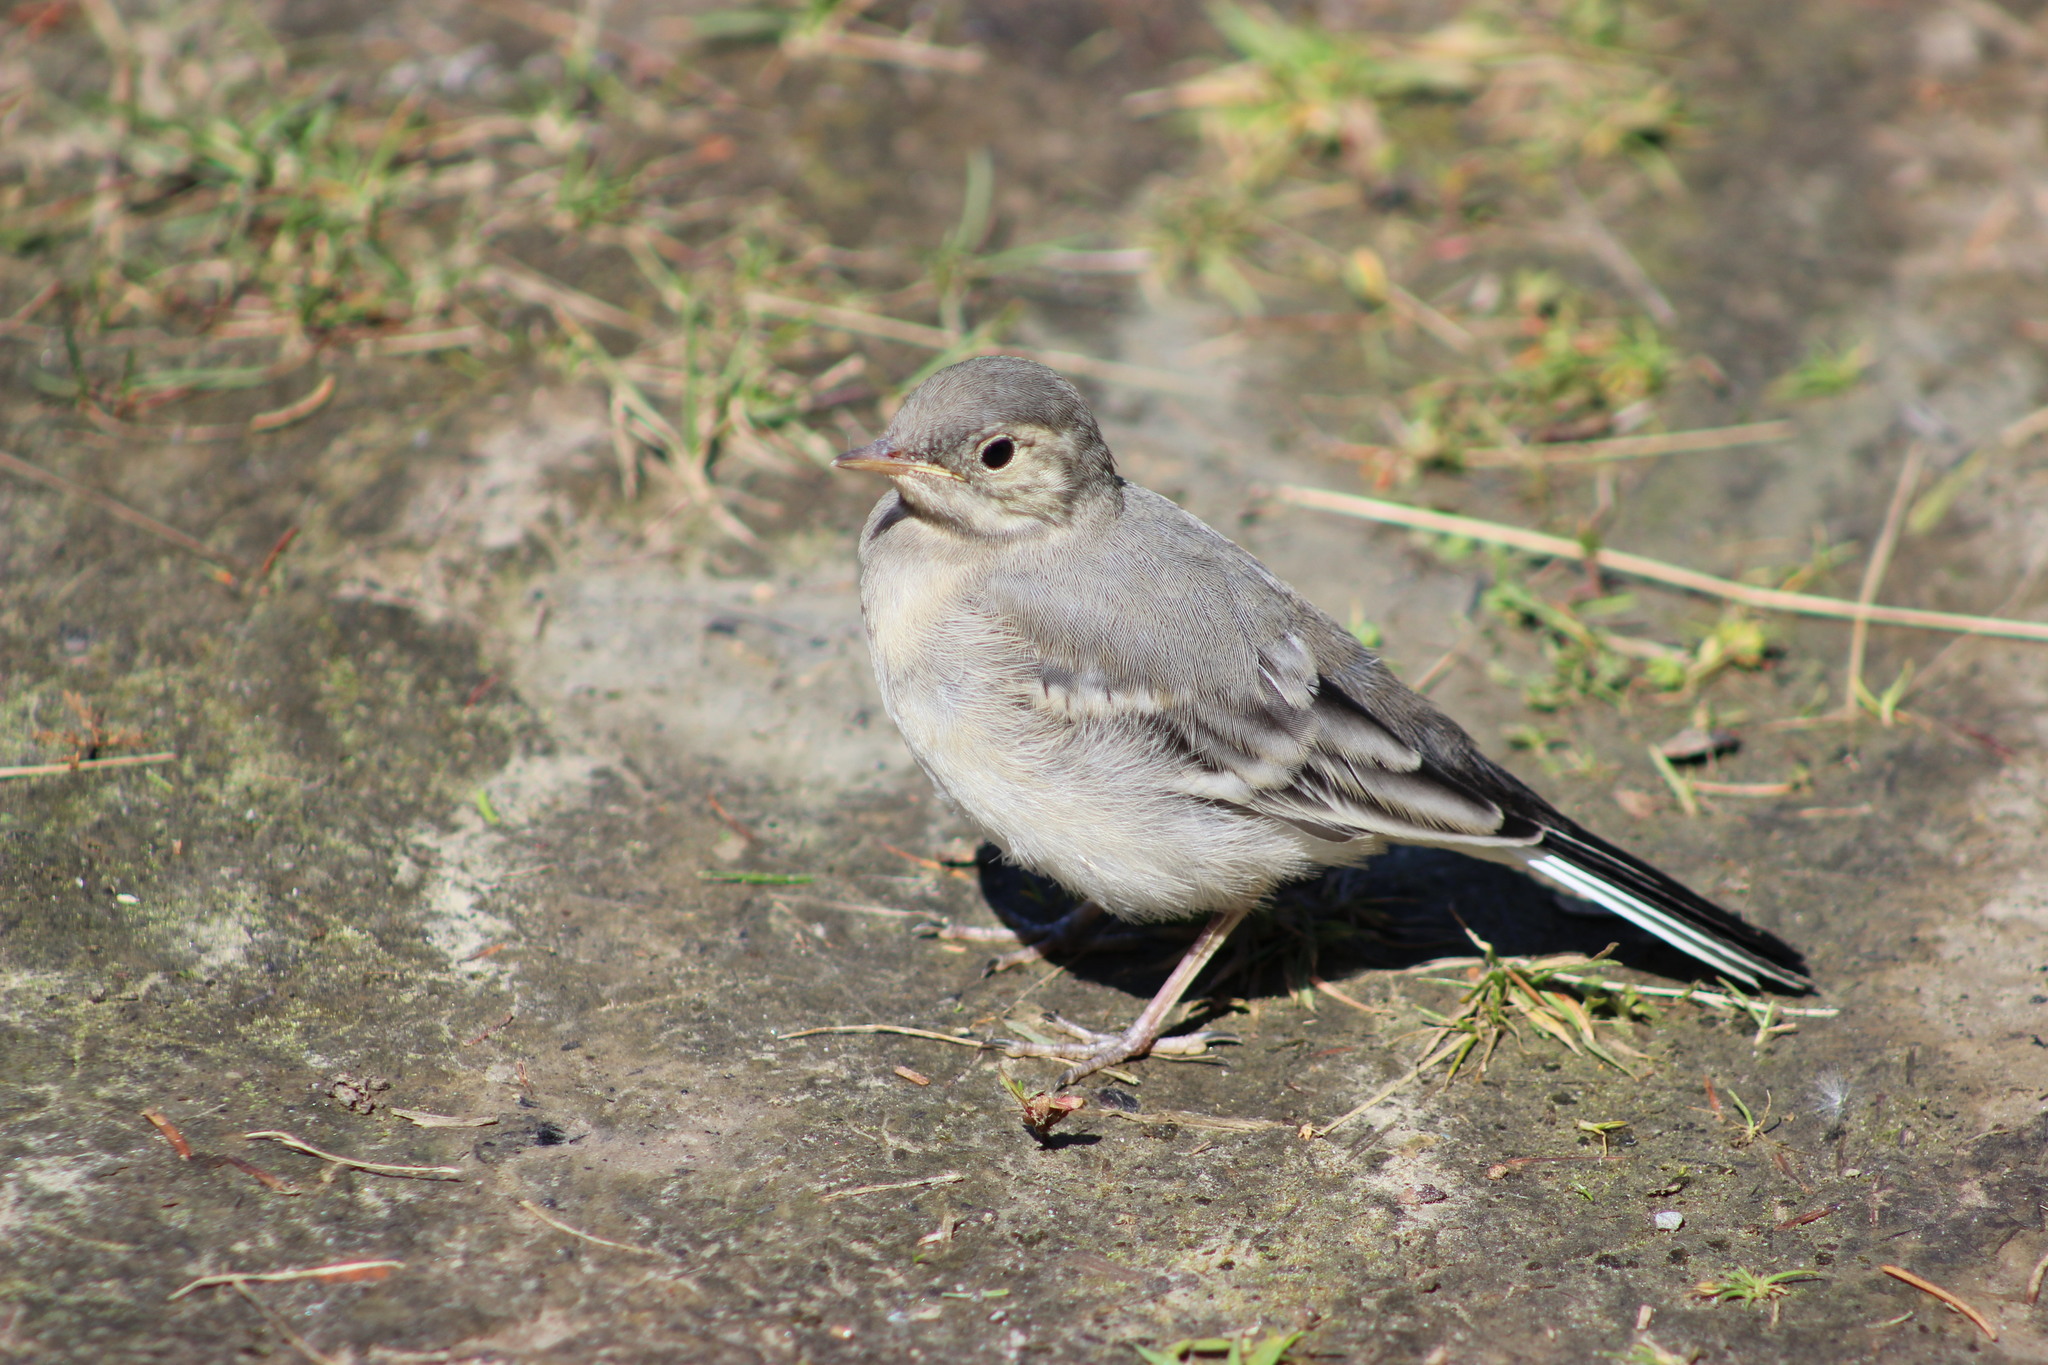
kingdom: Animalia
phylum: Chordata
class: Aves
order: Passeriformes
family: Motacillidae
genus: Motacilla
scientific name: Motacilla alba
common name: White wagtail
